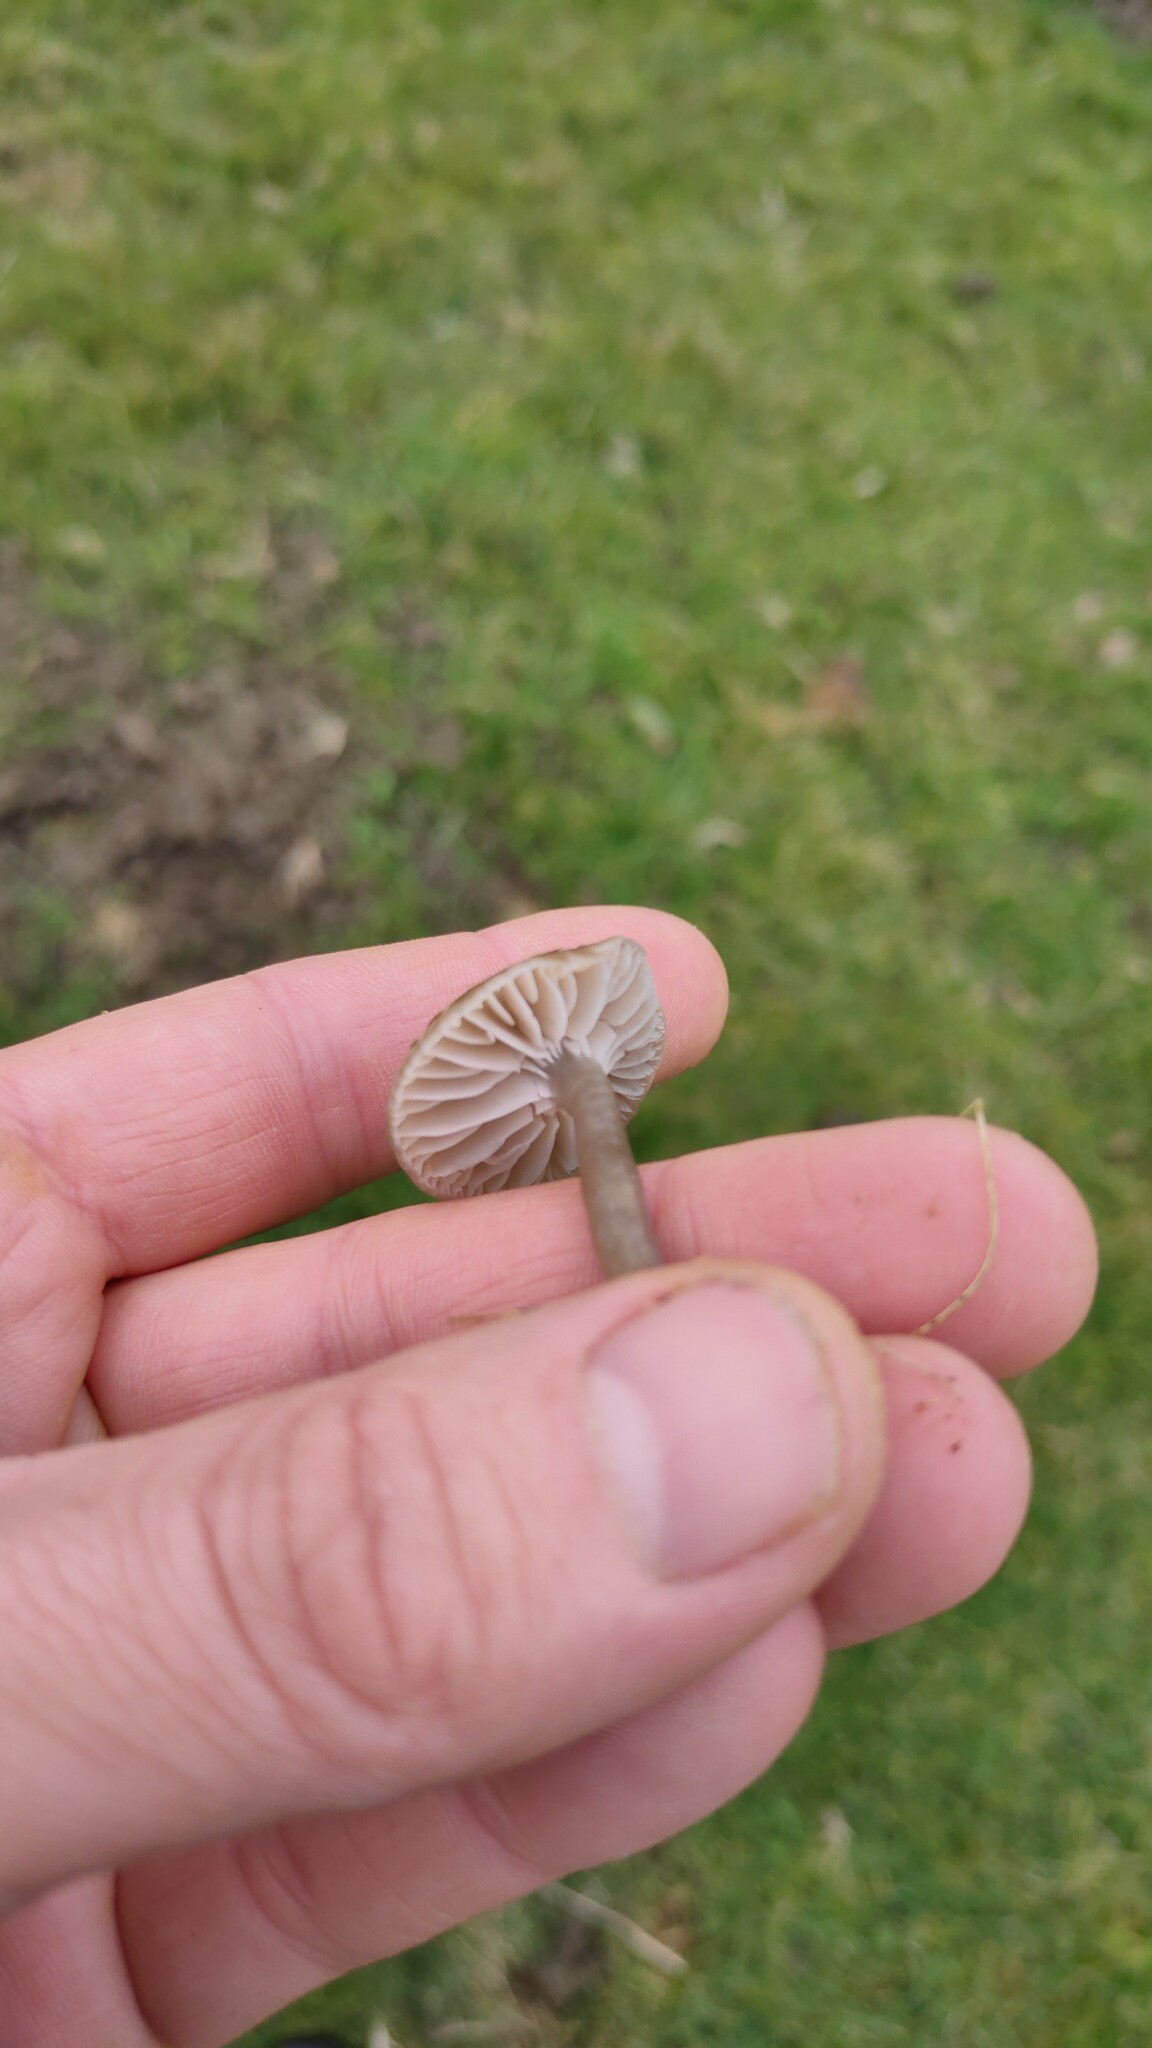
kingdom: Fungi
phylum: Basidiomycota
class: Agaricomycetes
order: Agaricales
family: Hygrophoraceae
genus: Gliophorus
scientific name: Gliophorus irrigatus
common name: Slimy waxcap
